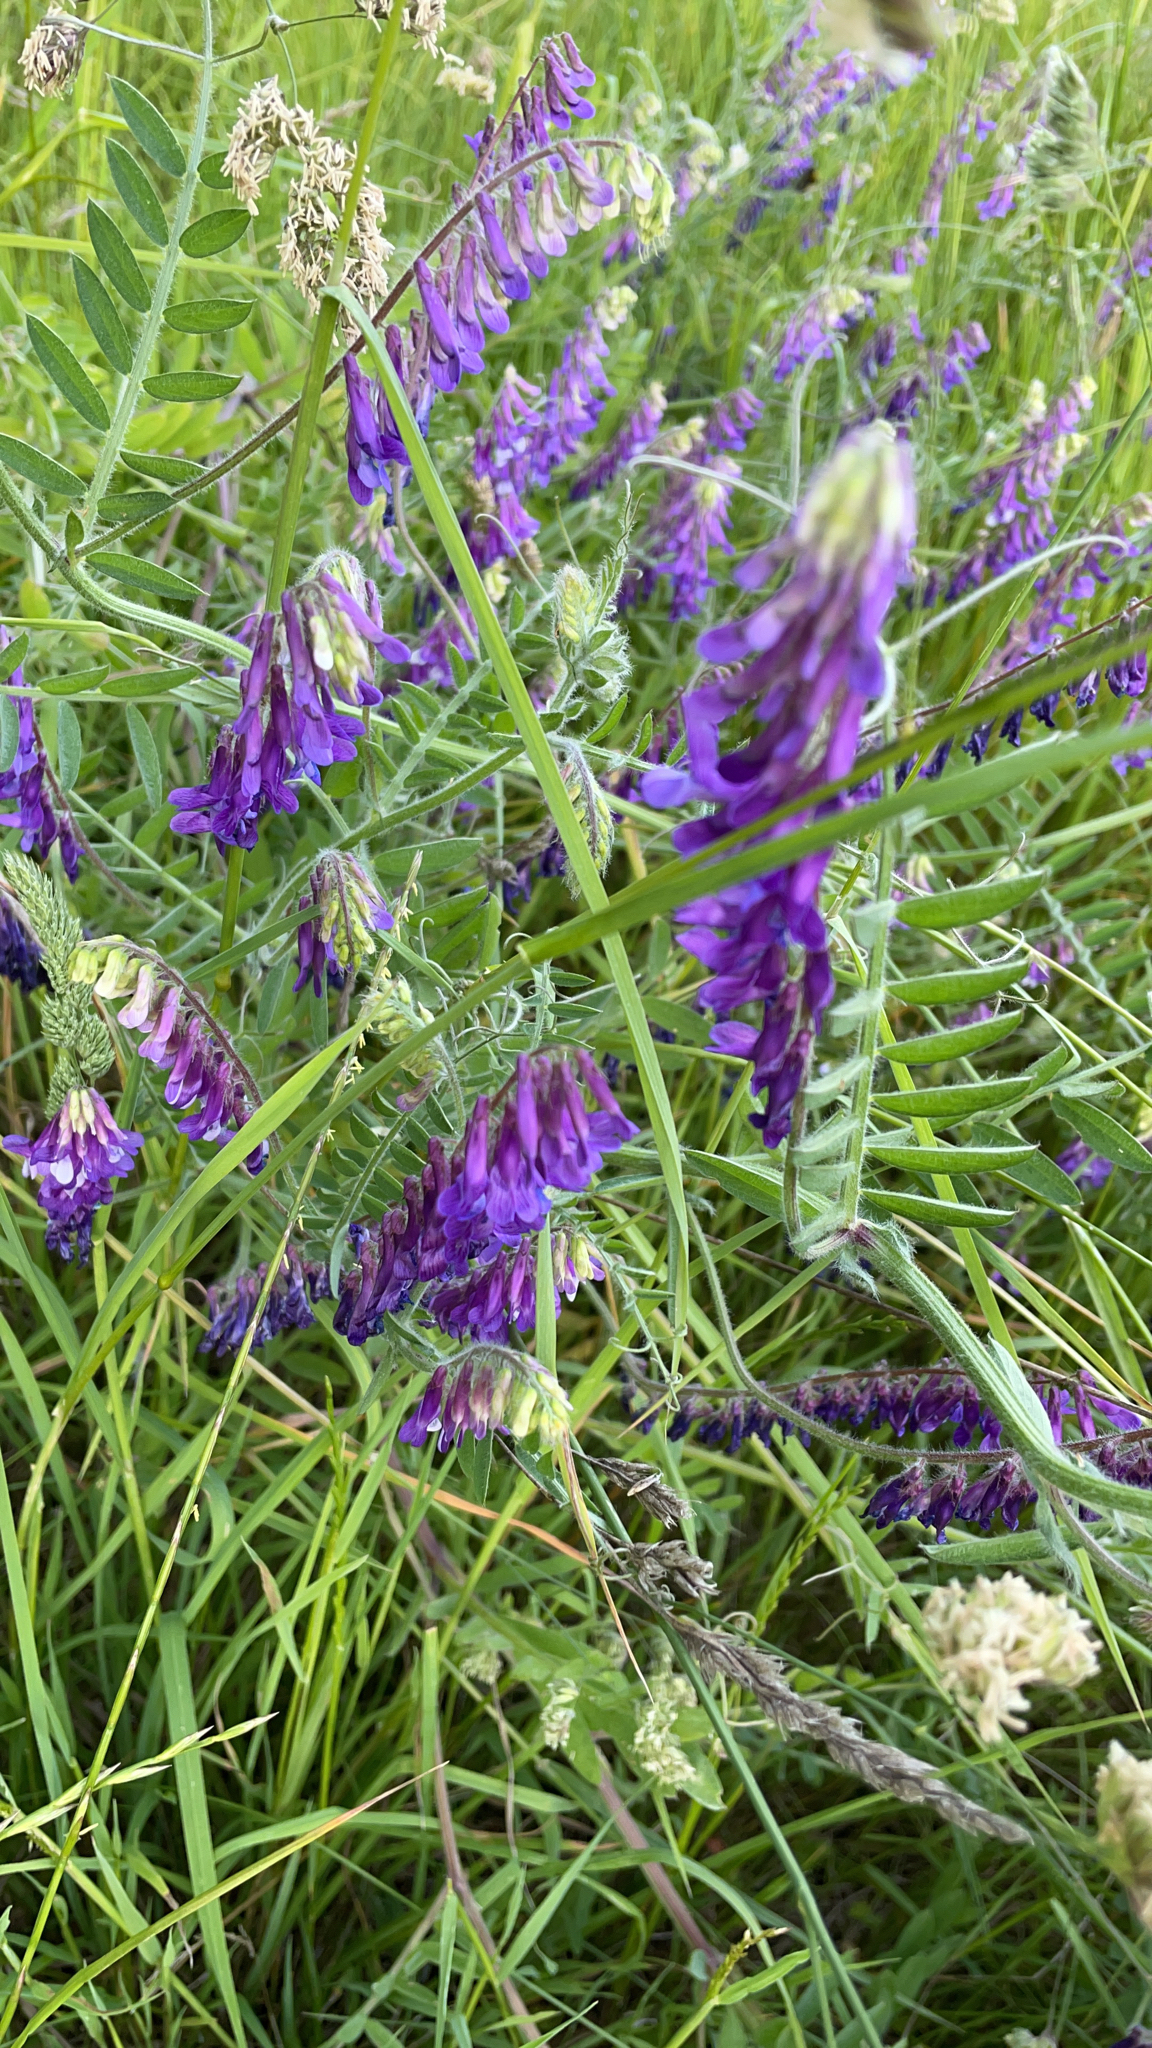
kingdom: Plantae
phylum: Tracheophyta
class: Magnoliopsida
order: Fabales
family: Fabaceae
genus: Vicia
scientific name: Vicia villosa
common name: Fodder vetch
